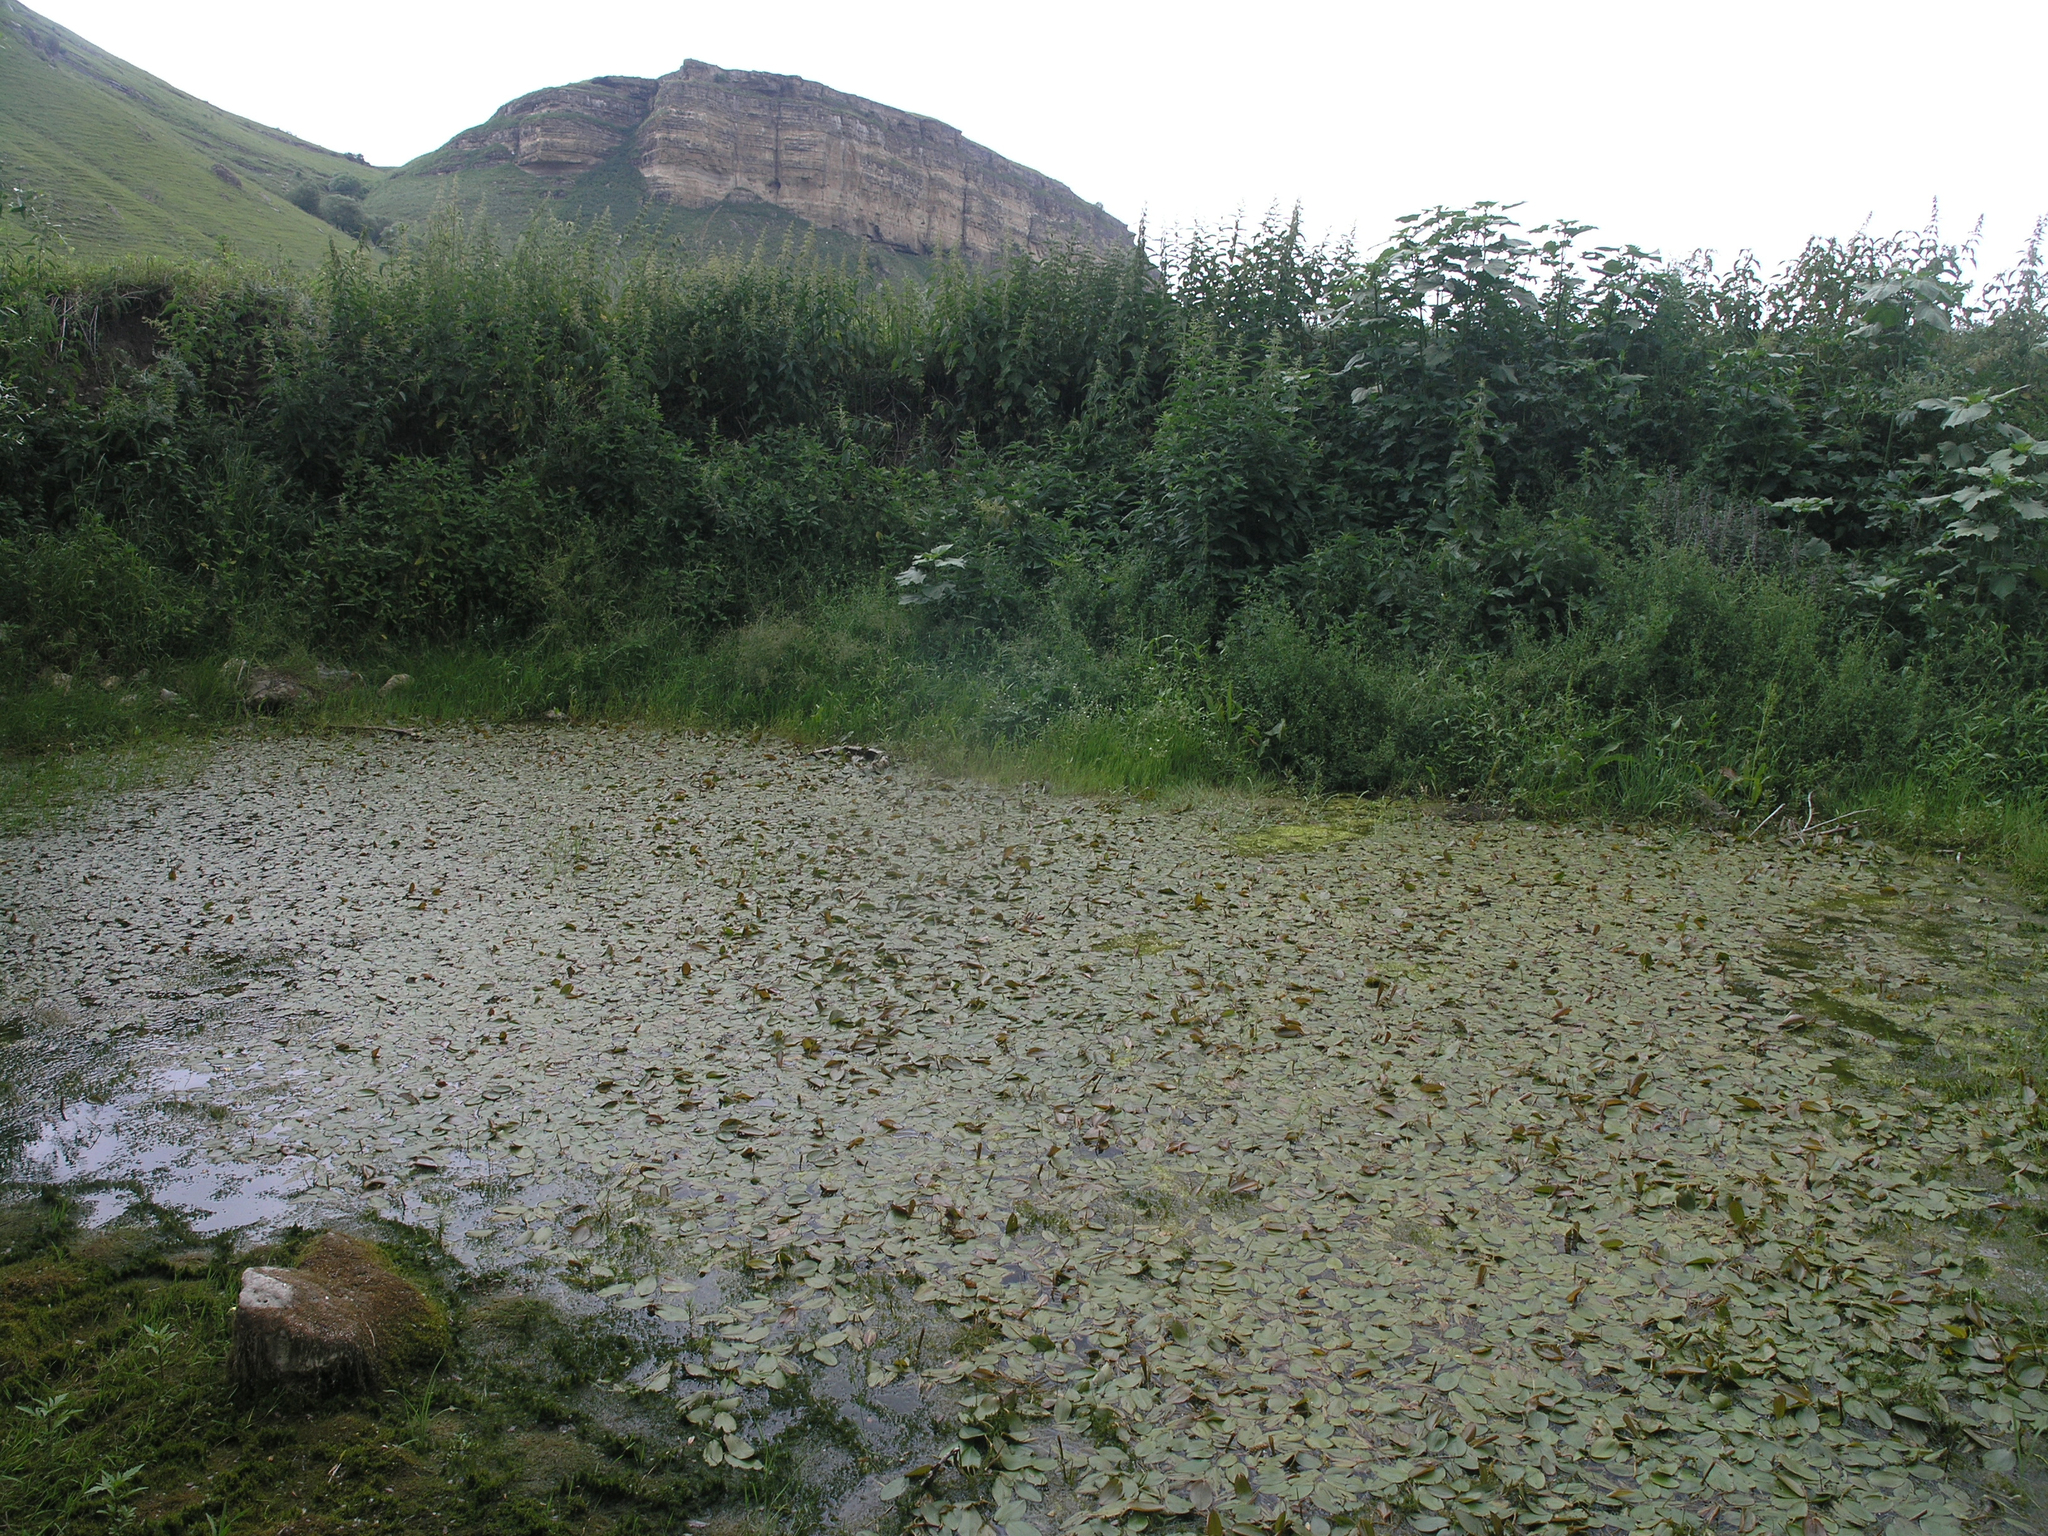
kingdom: Plantae
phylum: Tracheophyta
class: Liliopsida
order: Alismatales
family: Potamogetonaceae
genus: Potamogeton
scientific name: Potamogeton natans
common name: Broad-leaved pondweed
